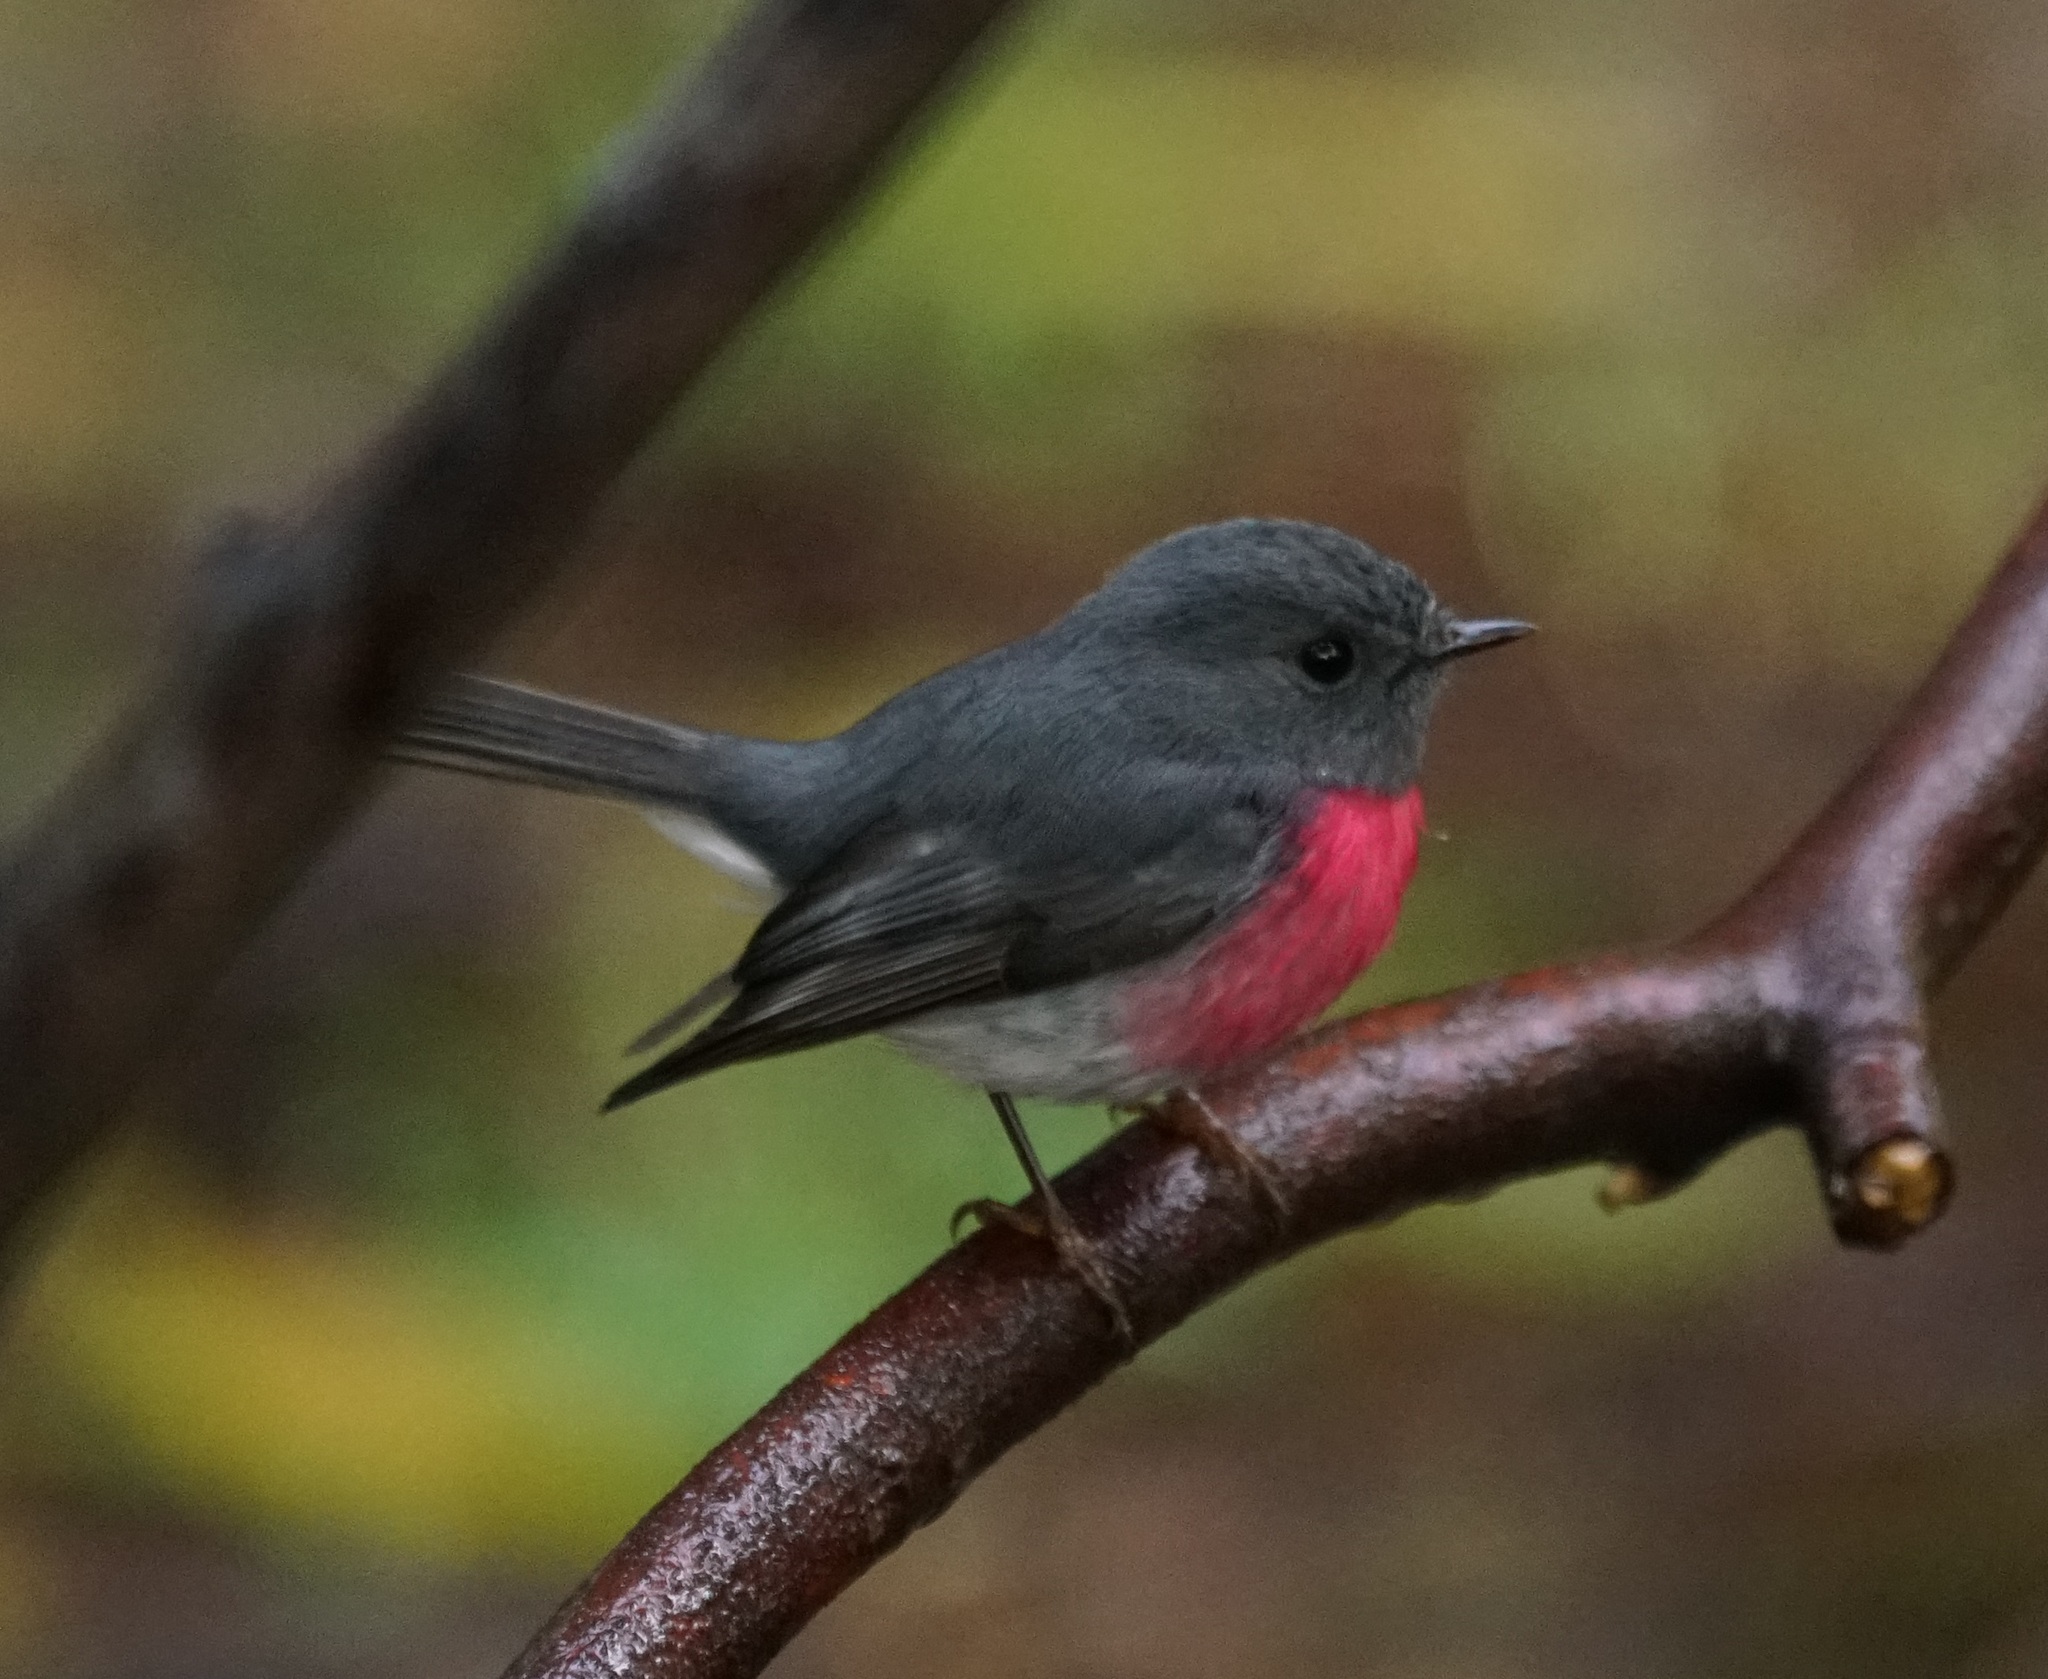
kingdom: Animalia
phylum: Chordata
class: Aves
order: Passeriformes
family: Petroicidae
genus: Petroica
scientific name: Petroica rosea
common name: Rose robin
